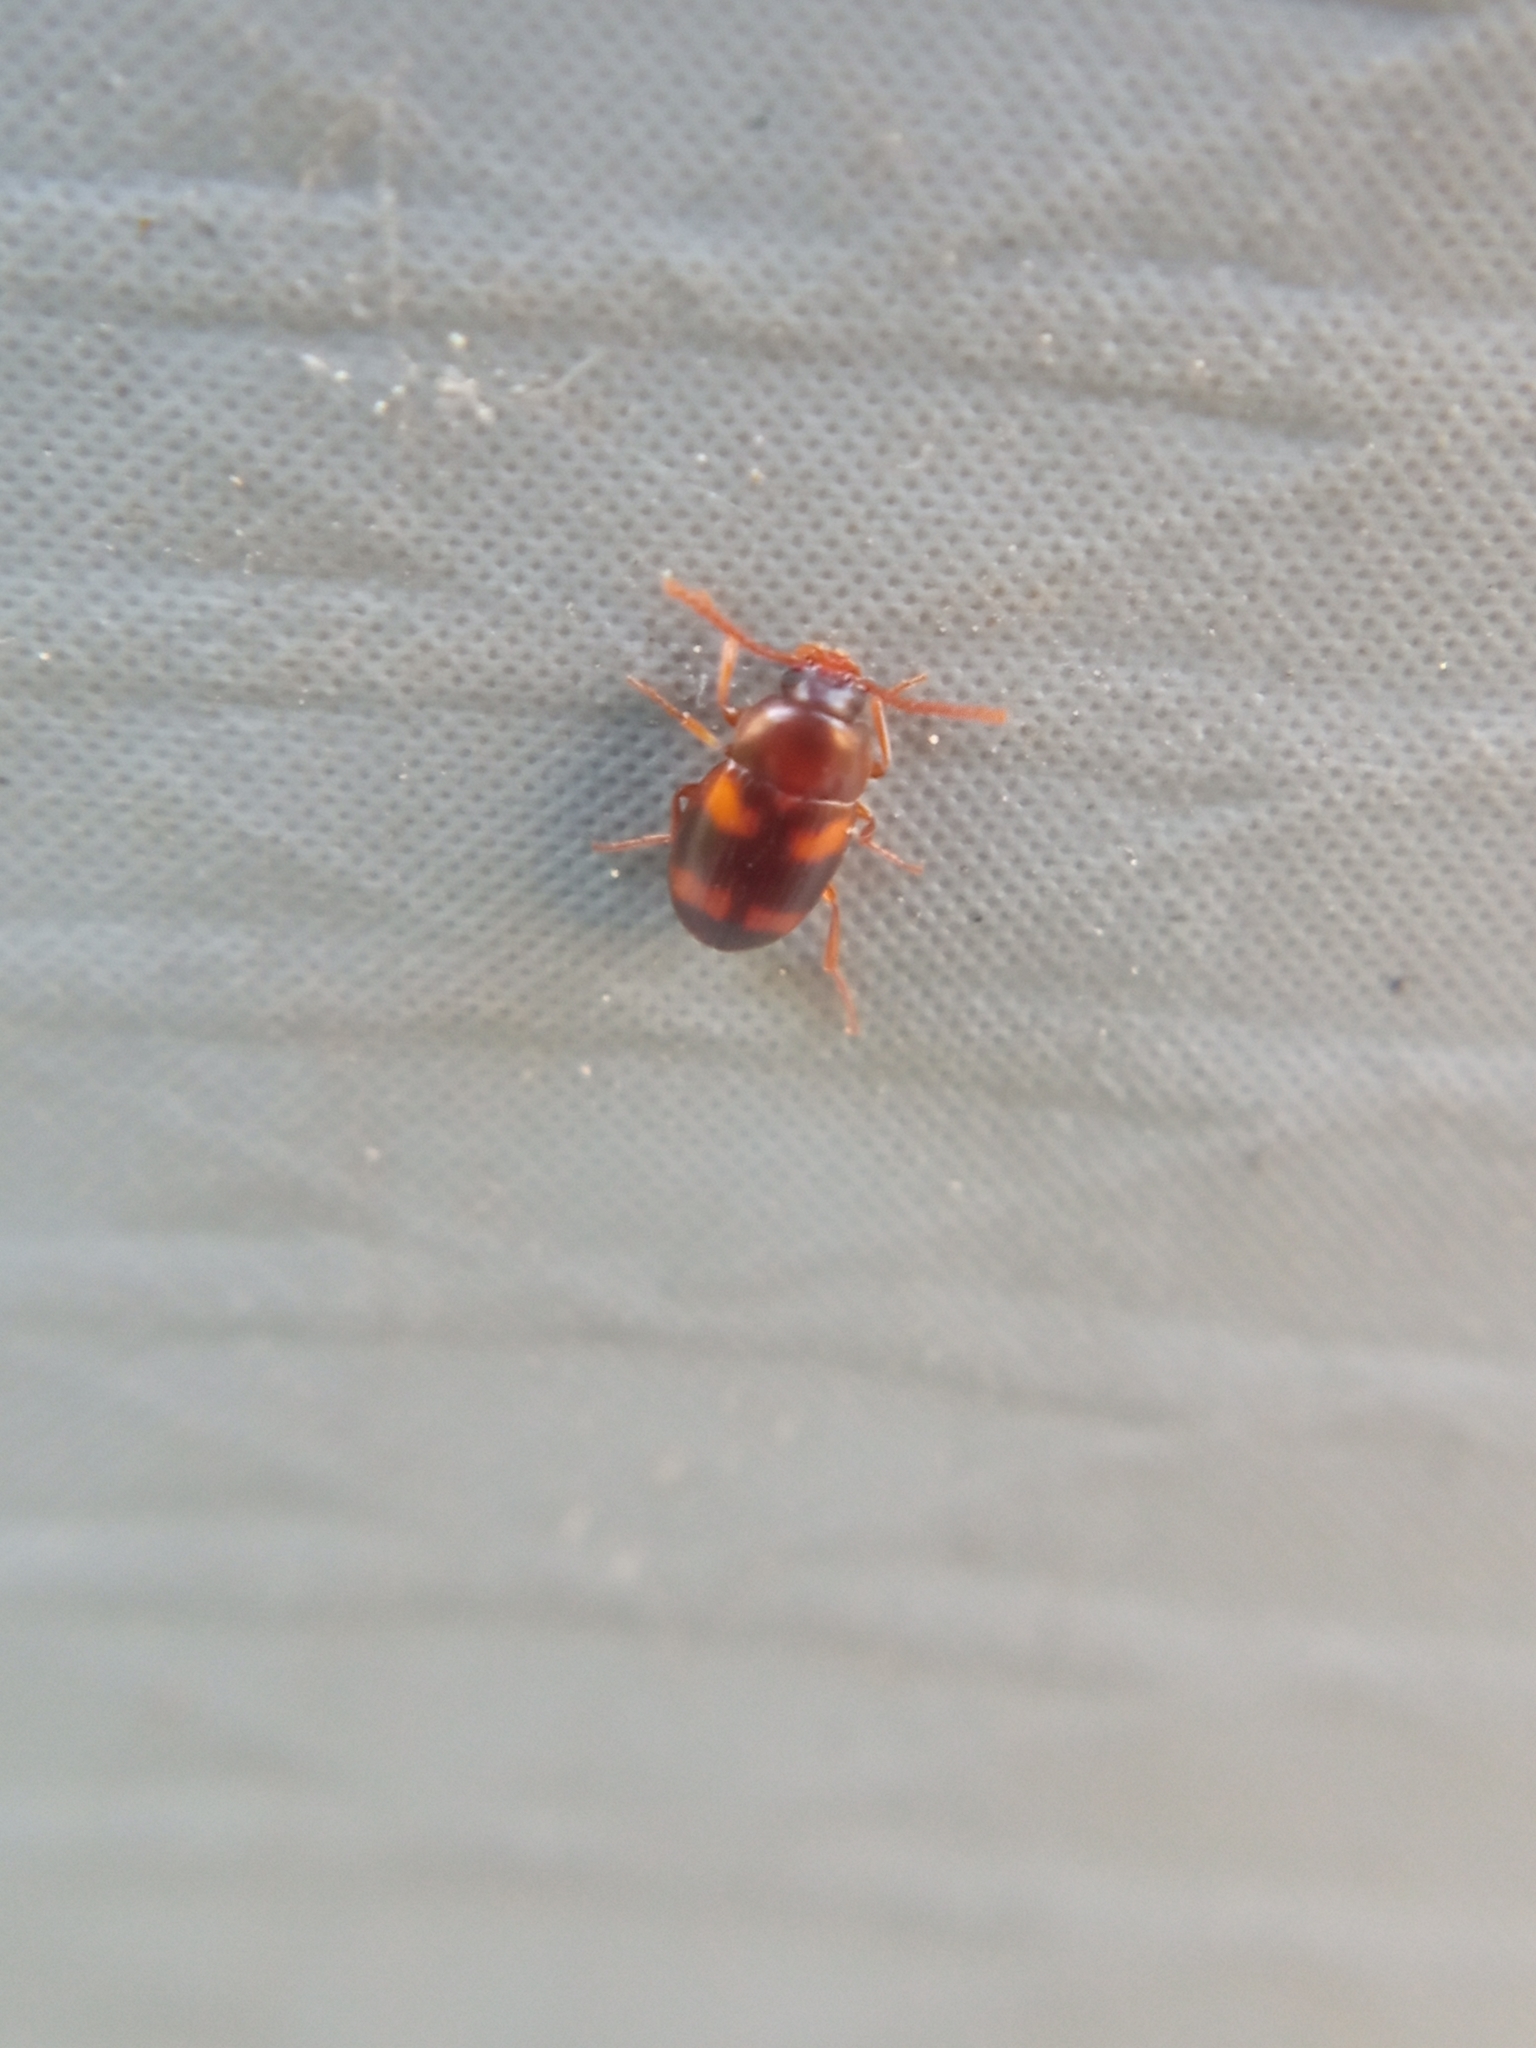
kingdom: Animalia
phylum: Arthropoda
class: Insecta
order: Coleoptera
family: Tenebrionidae
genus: Alphitophagus
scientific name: Alphitophagus bifasciatus
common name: Two-banded fungus beetle
